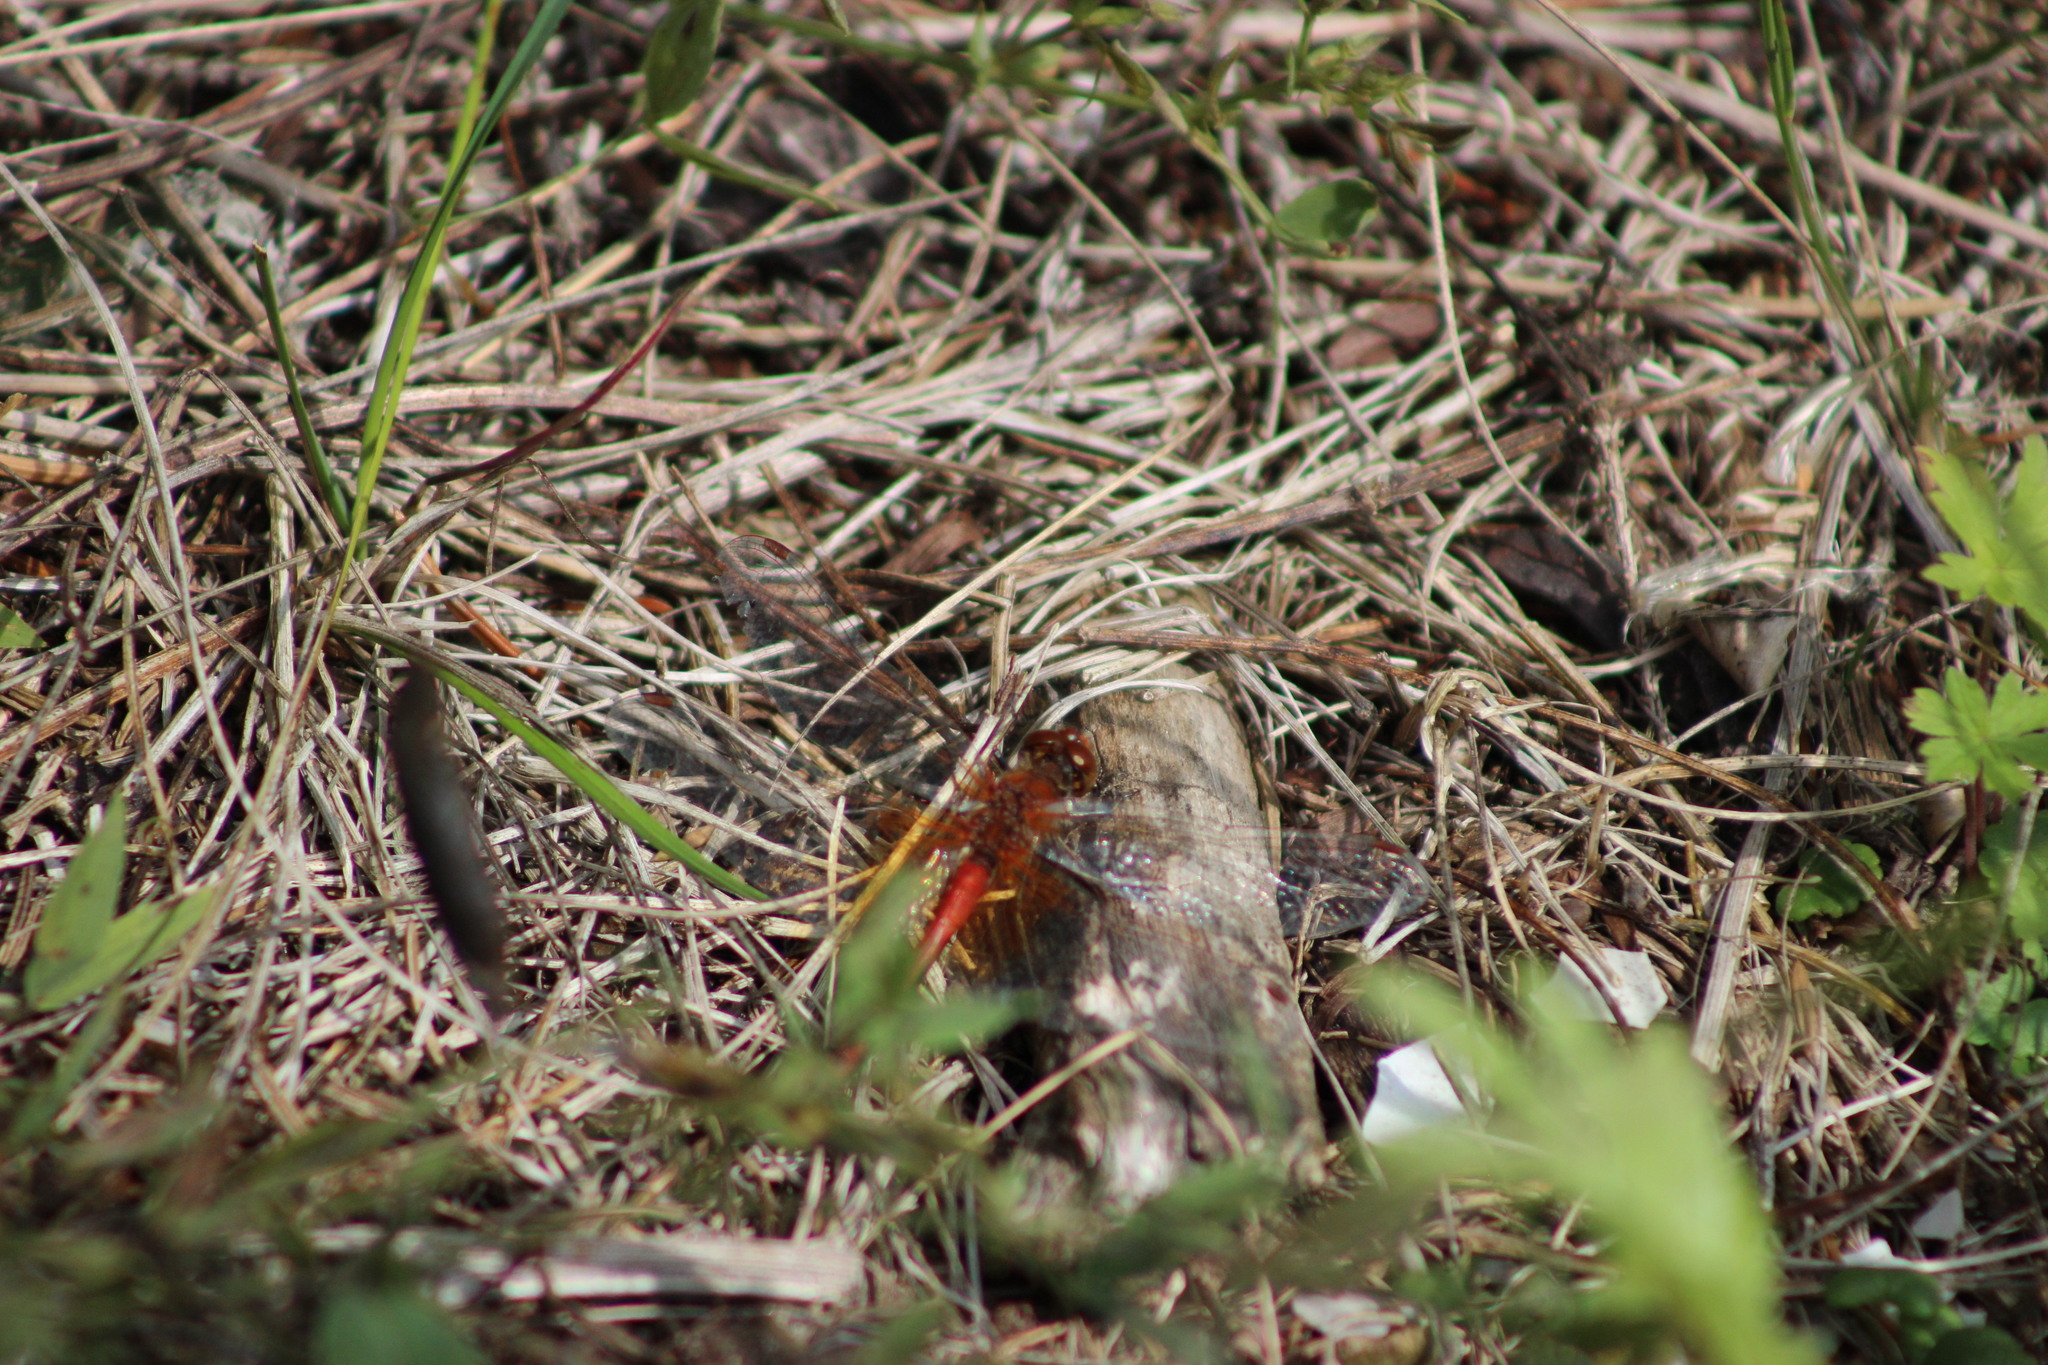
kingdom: Animalia
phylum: Arthropoda
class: Insecta
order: Odonata
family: Libellulidae
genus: Sympetrum
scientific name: Sympetrum flaveolum
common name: Yellow-winged darter
